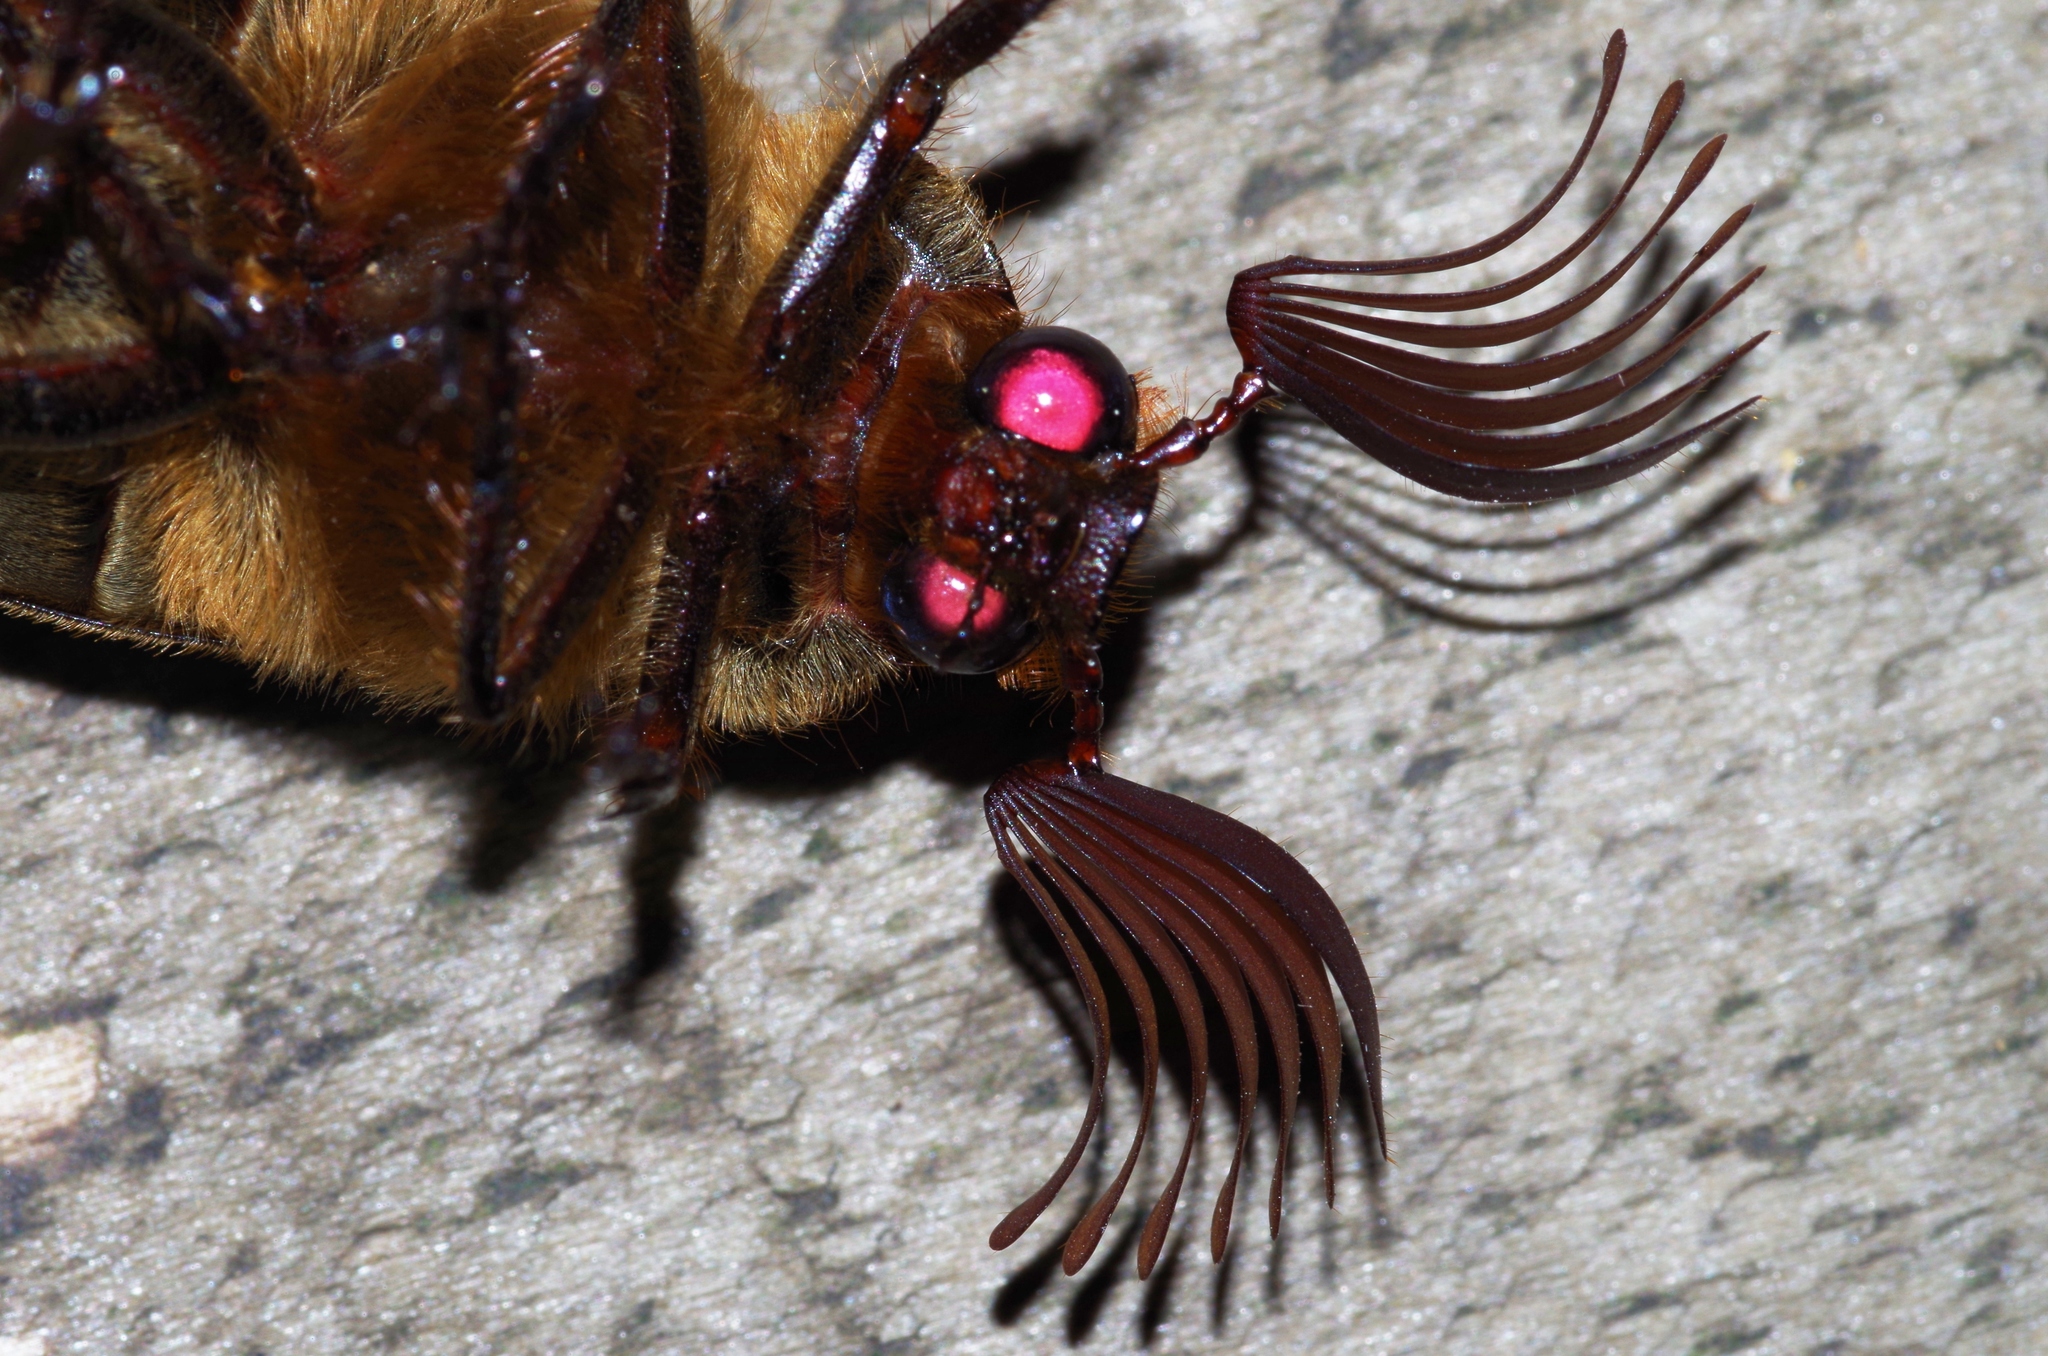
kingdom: Animalia
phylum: Arthropoda
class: Insecta
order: Coleoptera
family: Scarabaeidae
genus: Tricholontha
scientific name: Tricholontha papagena
